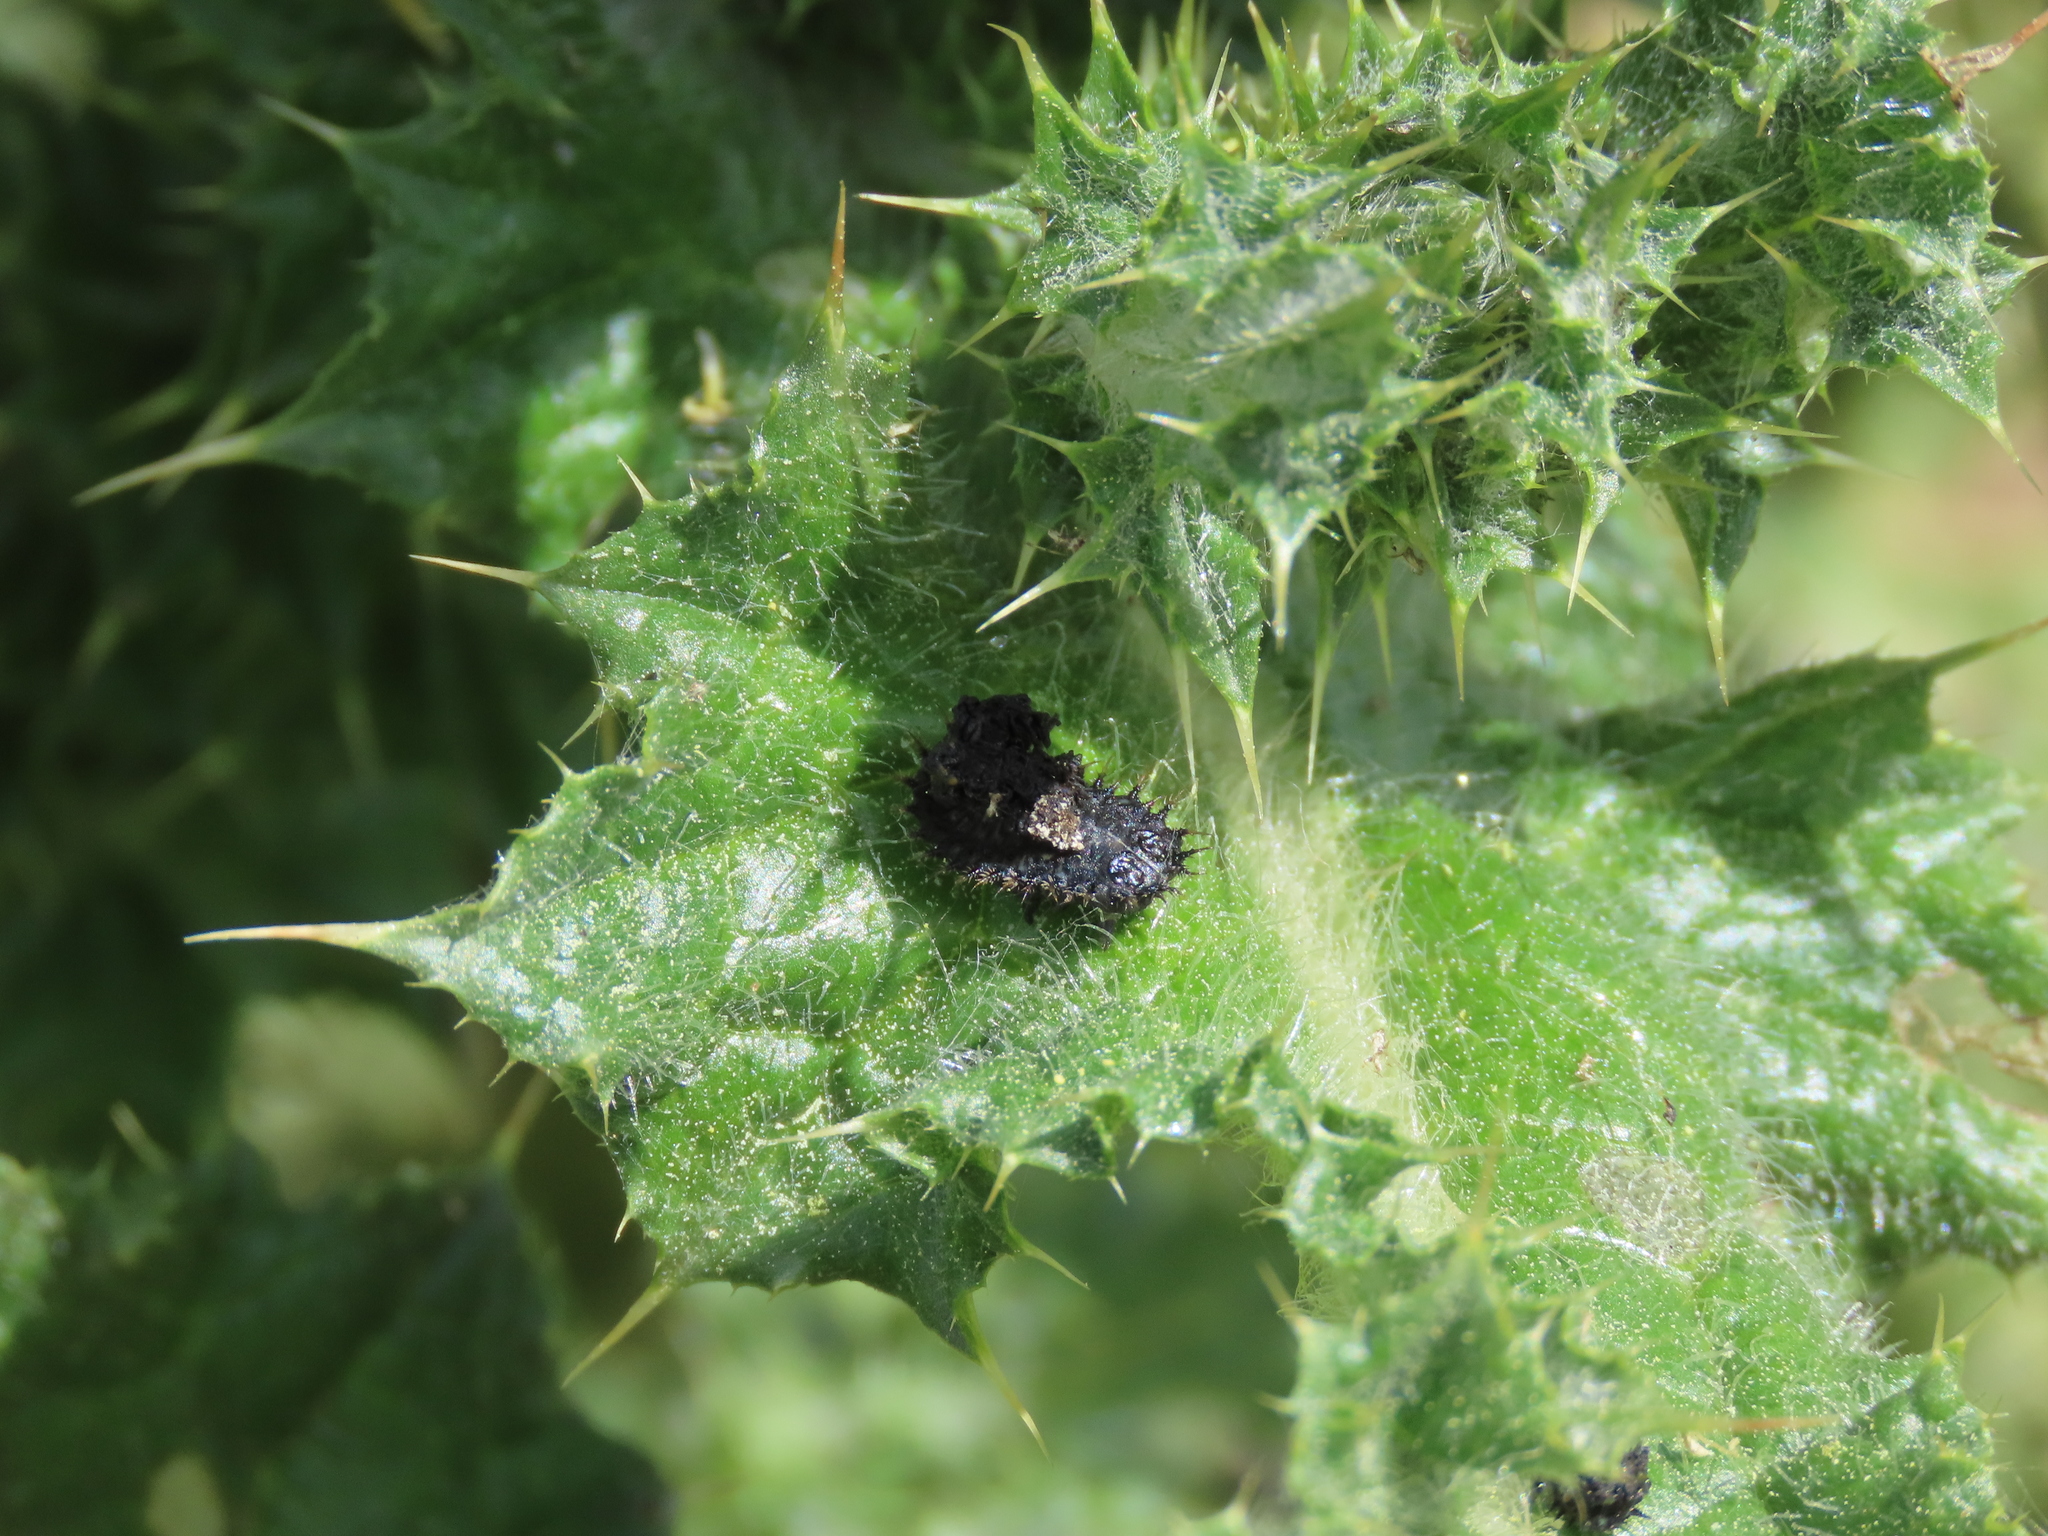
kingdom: Animalia
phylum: Arthropoda
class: Insecta
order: Coleoptera
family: Chrysomelidae
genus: Cassida
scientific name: Cassida deflorata
